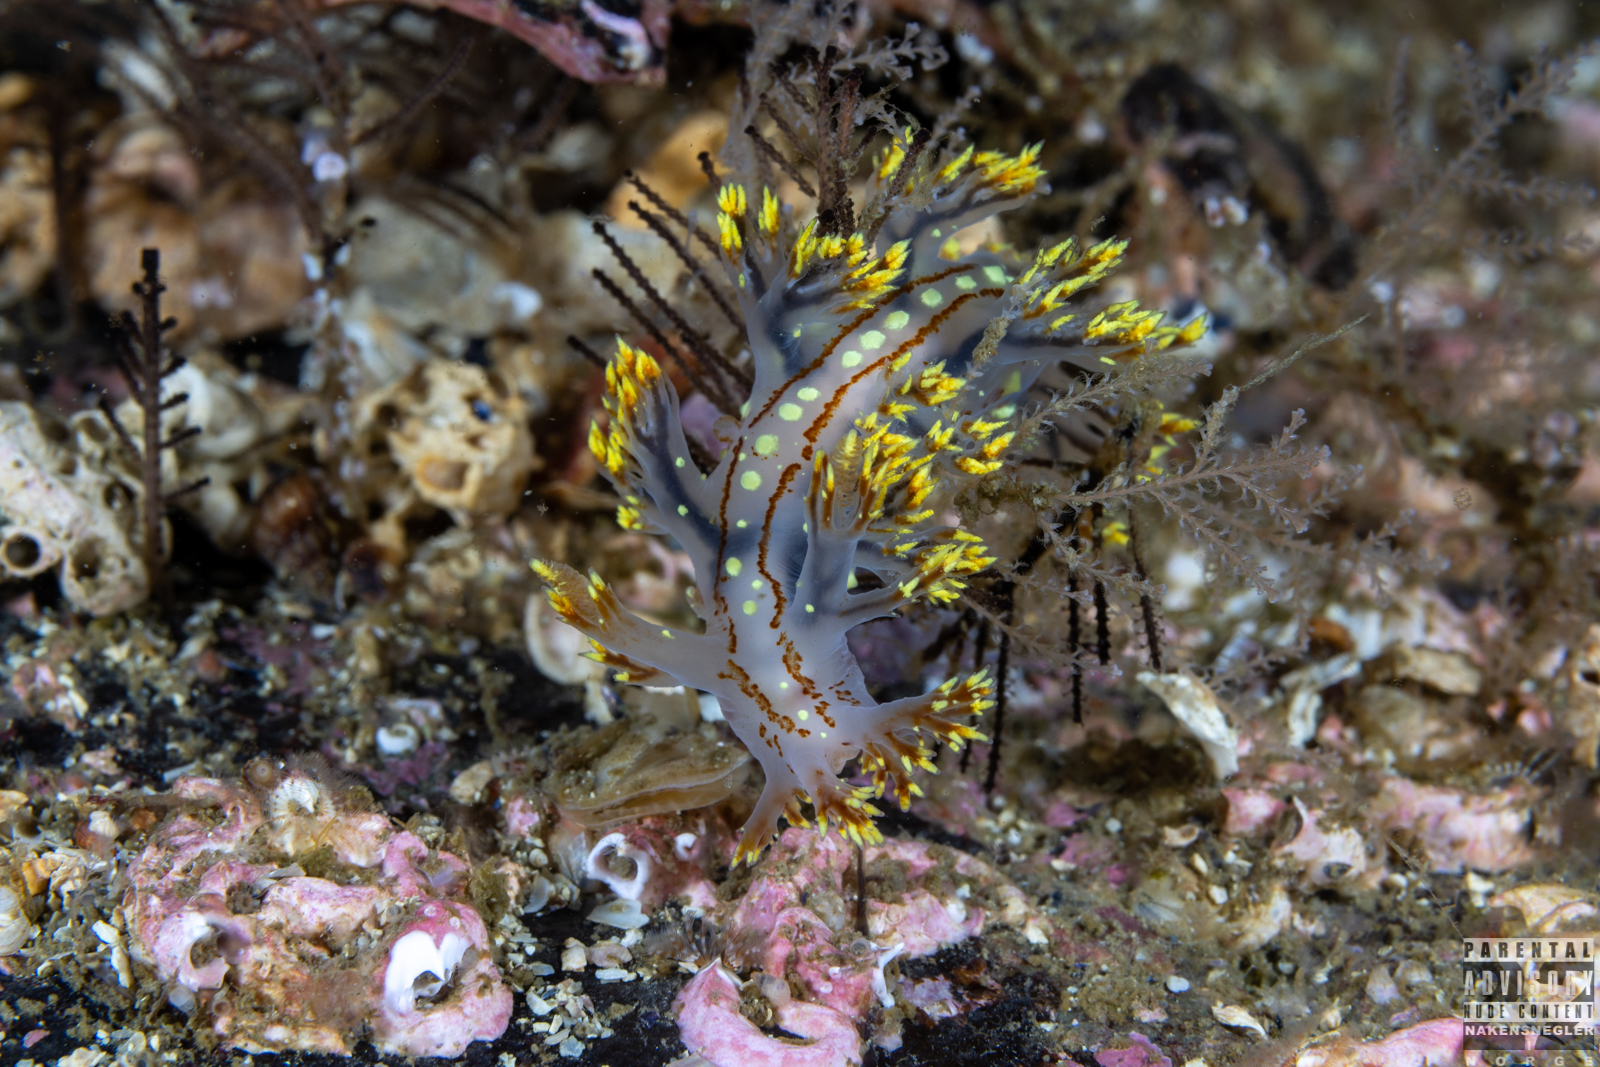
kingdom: Animalia
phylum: Mollusca
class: Gastropoda
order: Nudibranchia
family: Dendronotidae
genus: Dendronotus
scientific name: Dendronotus yrjargul
